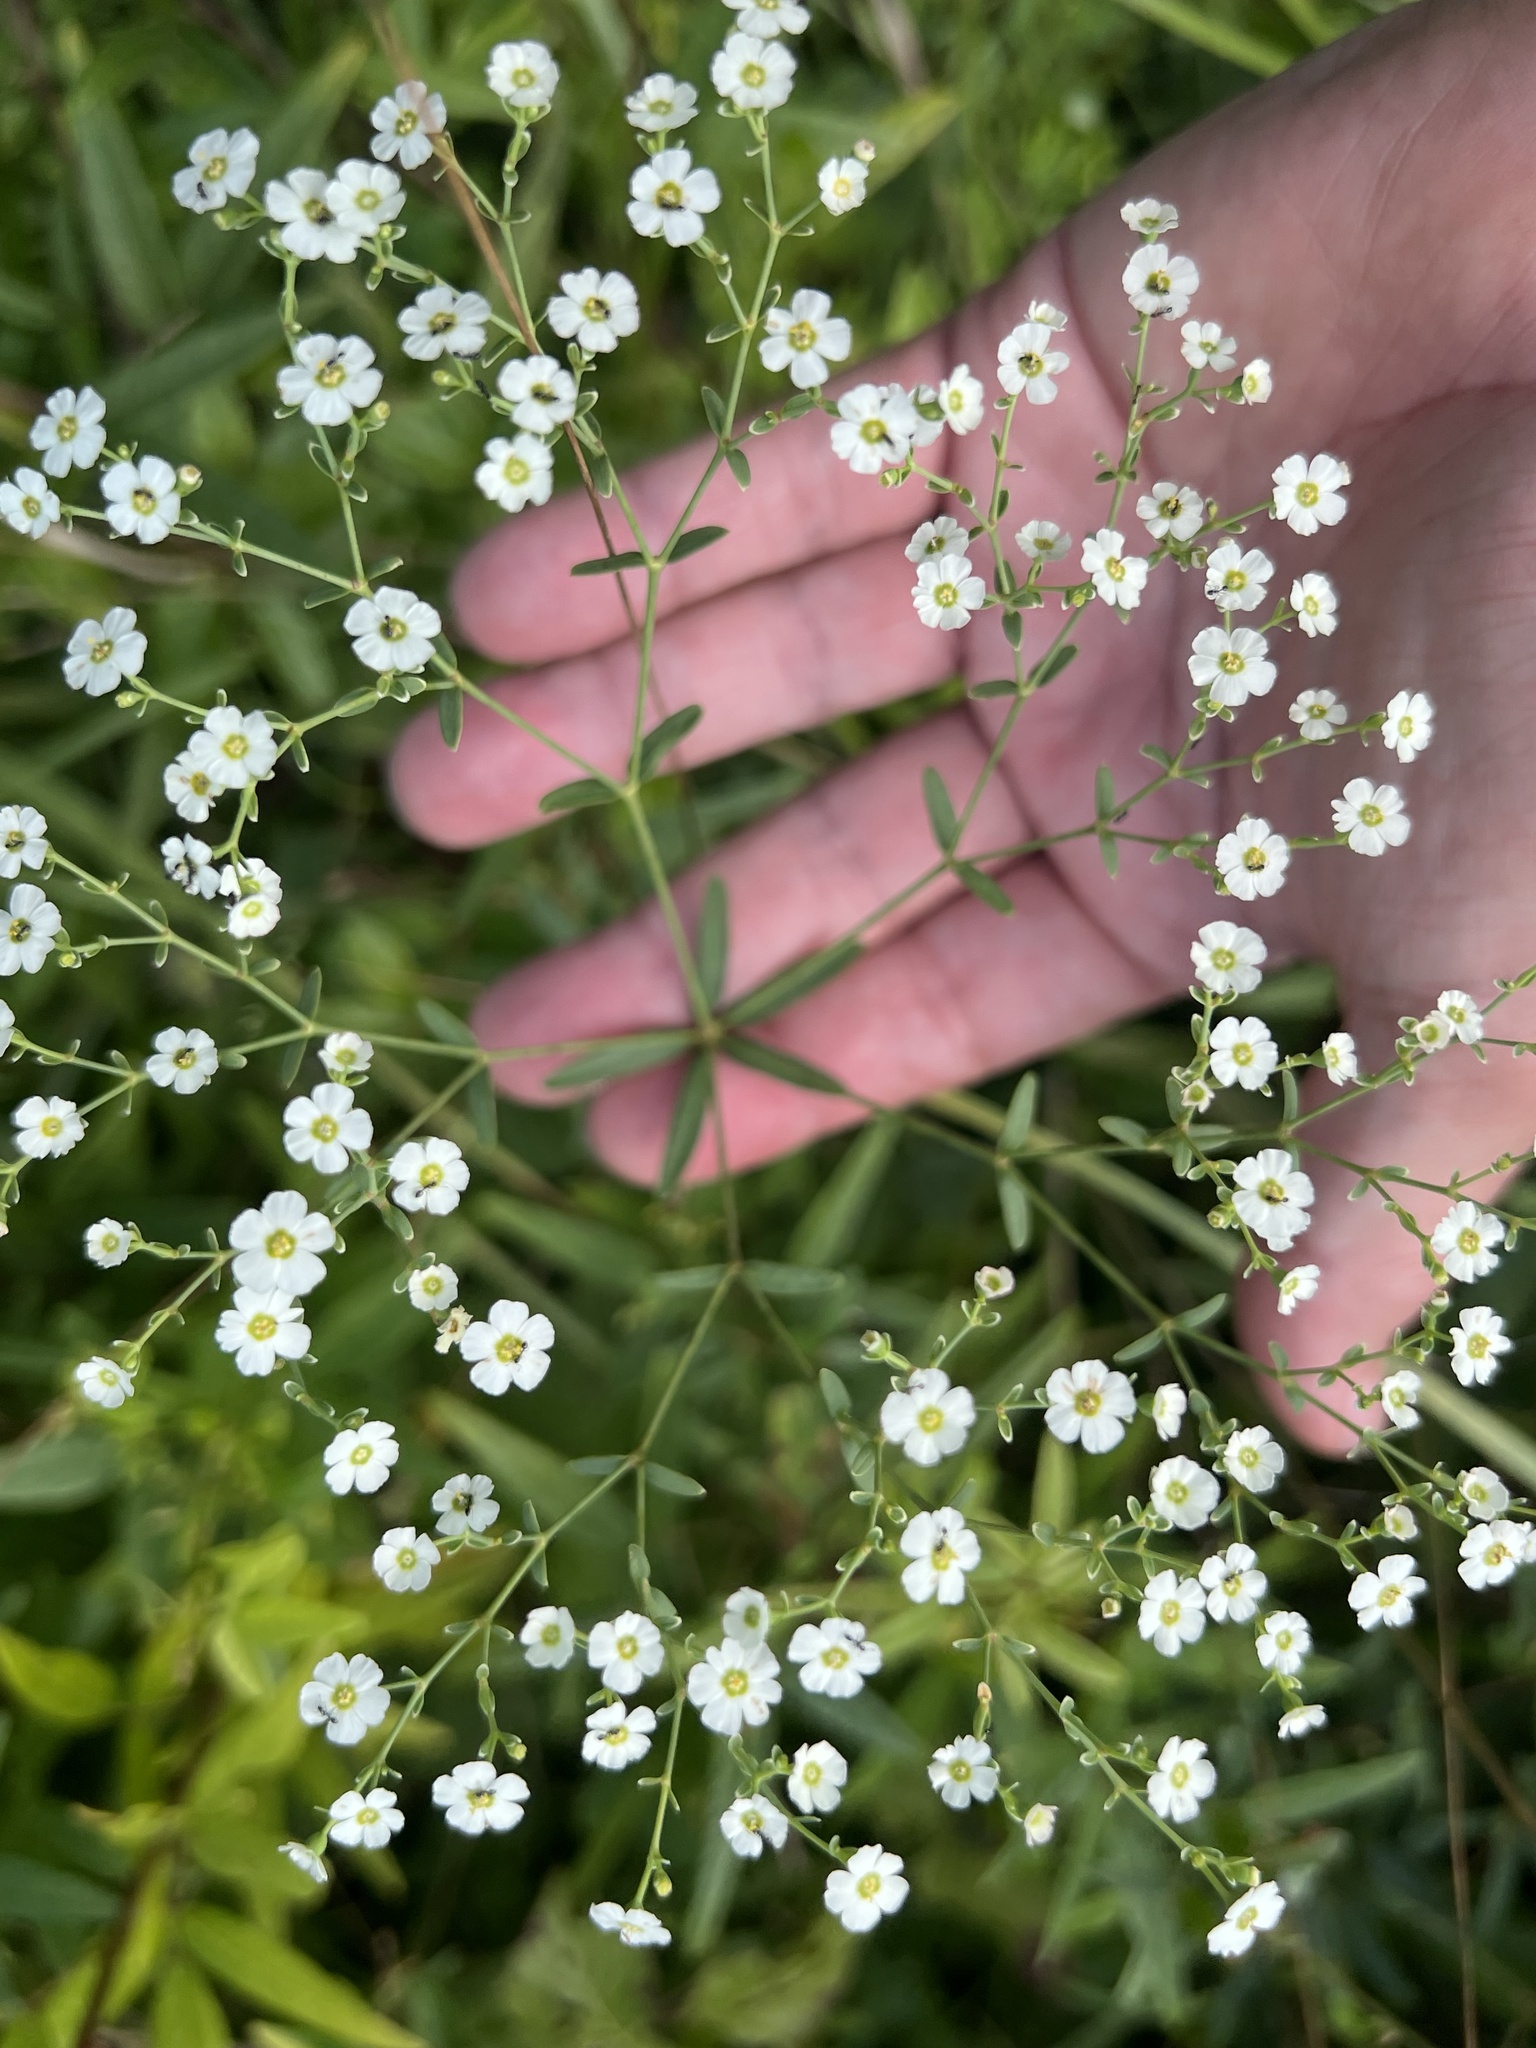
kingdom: Plantae
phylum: Tracheophyta
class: Magnoliopsida
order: Malpighiales
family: Euphorbiaceae
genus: Euphorbia
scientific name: Euphorbia corollata
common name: Flowering spurge
